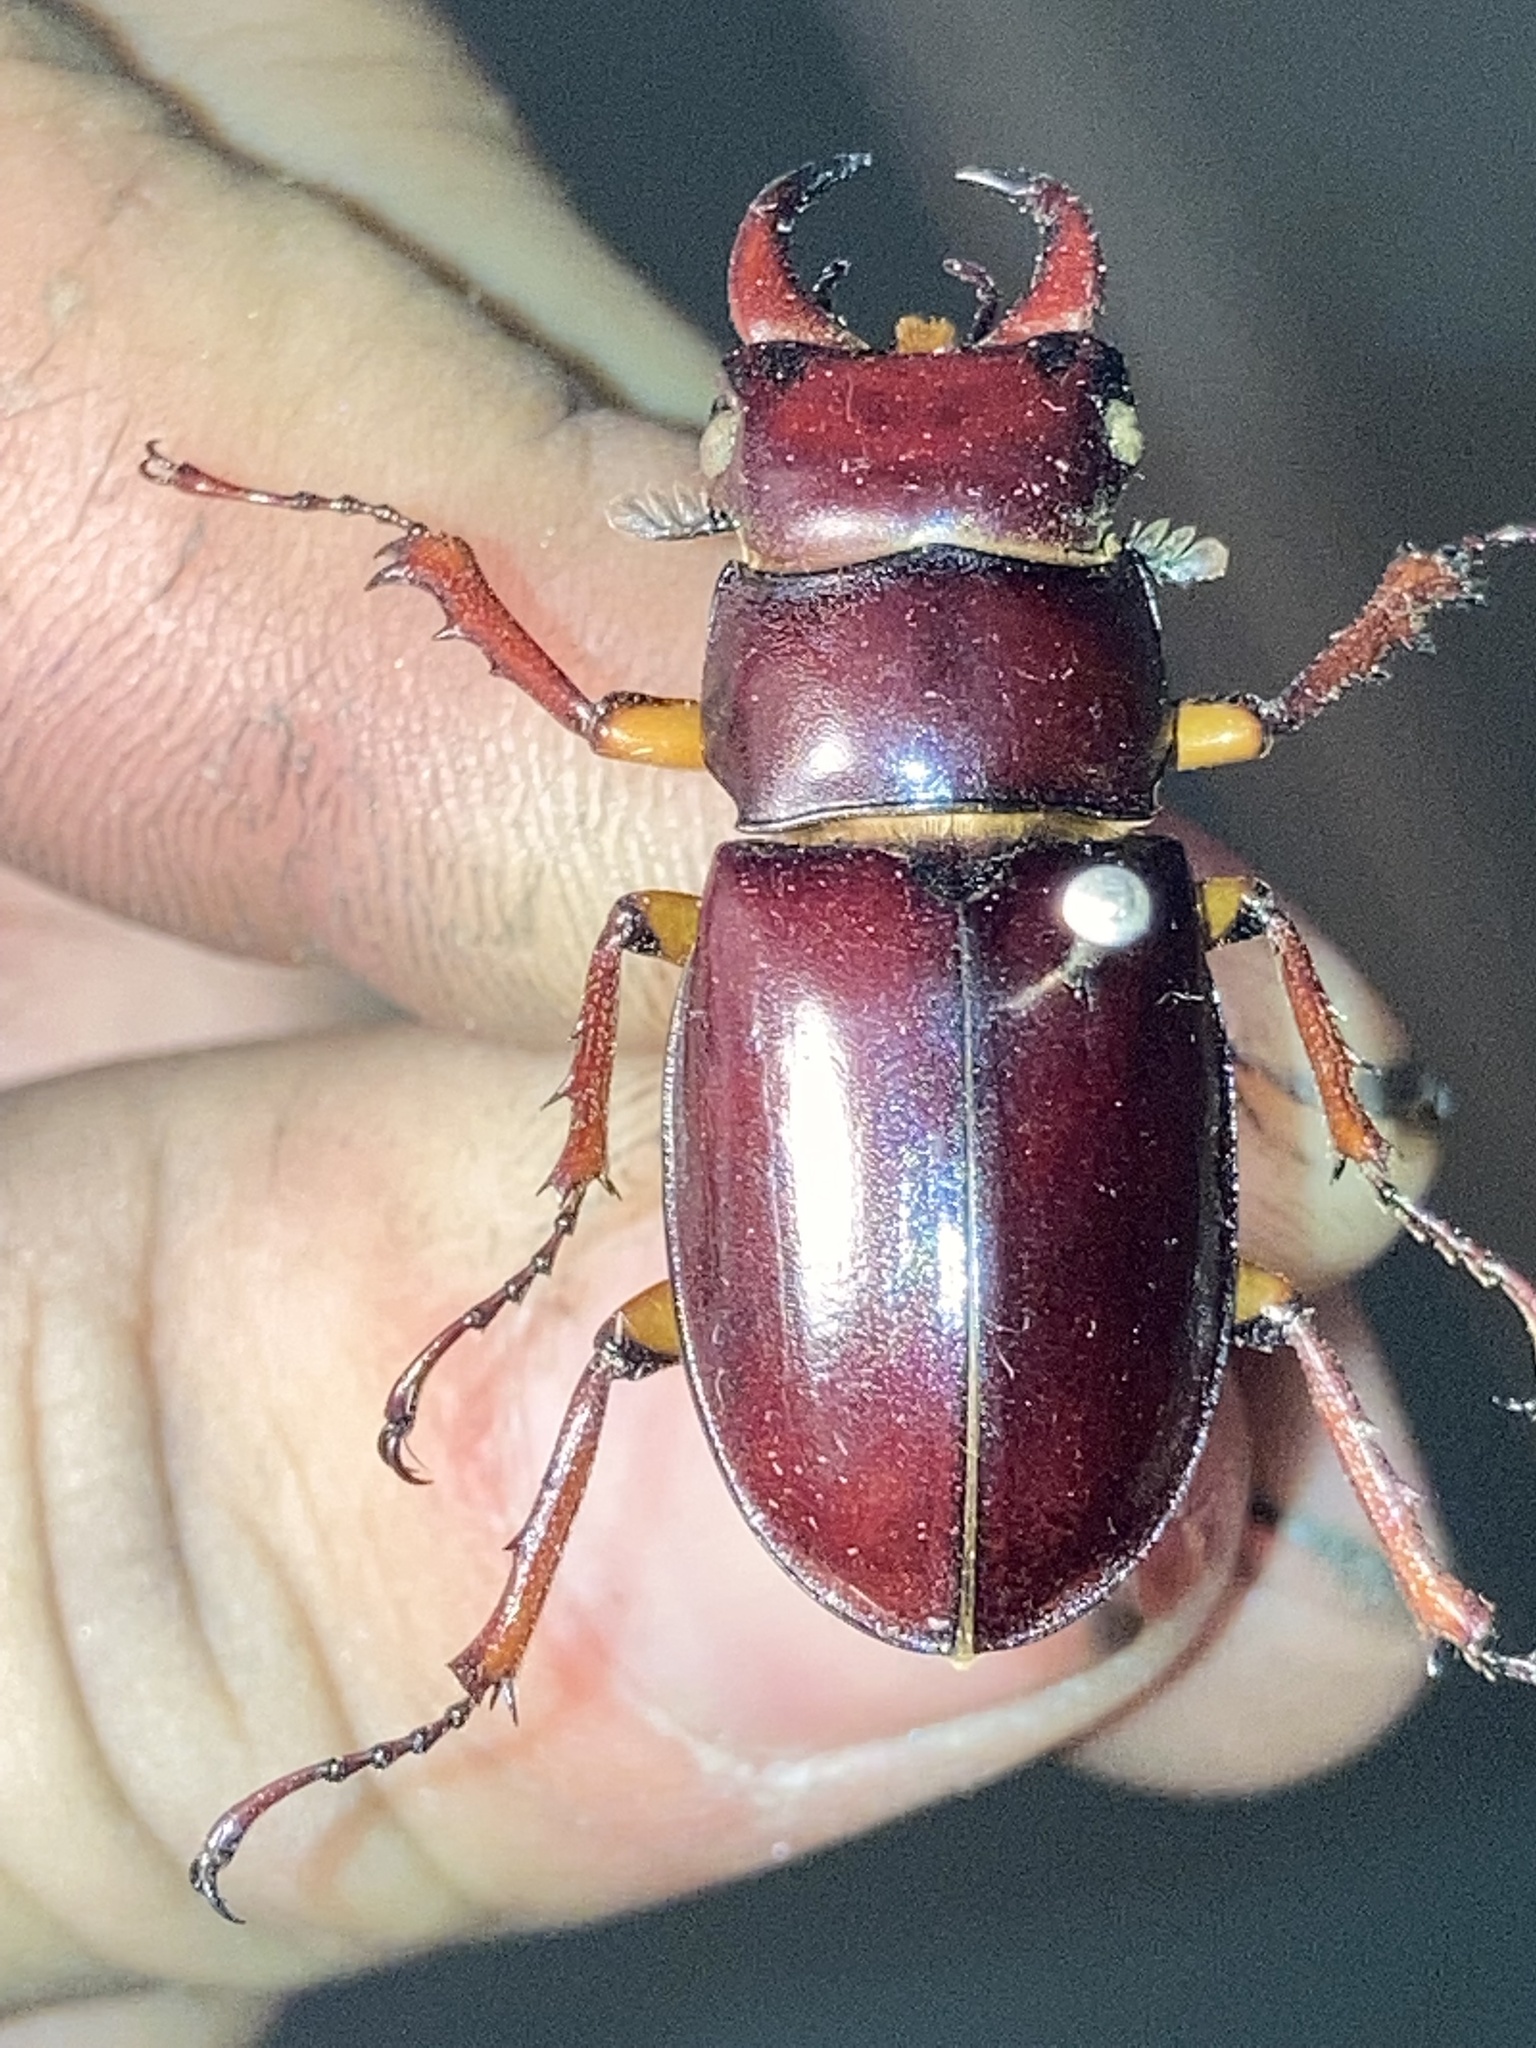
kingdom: Animalia
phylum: Arthropoda
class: Insecta
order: Coleoptera
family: Lucanidae
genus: Lucanus
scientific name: Lucanus capreolus
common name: Stag beetle
